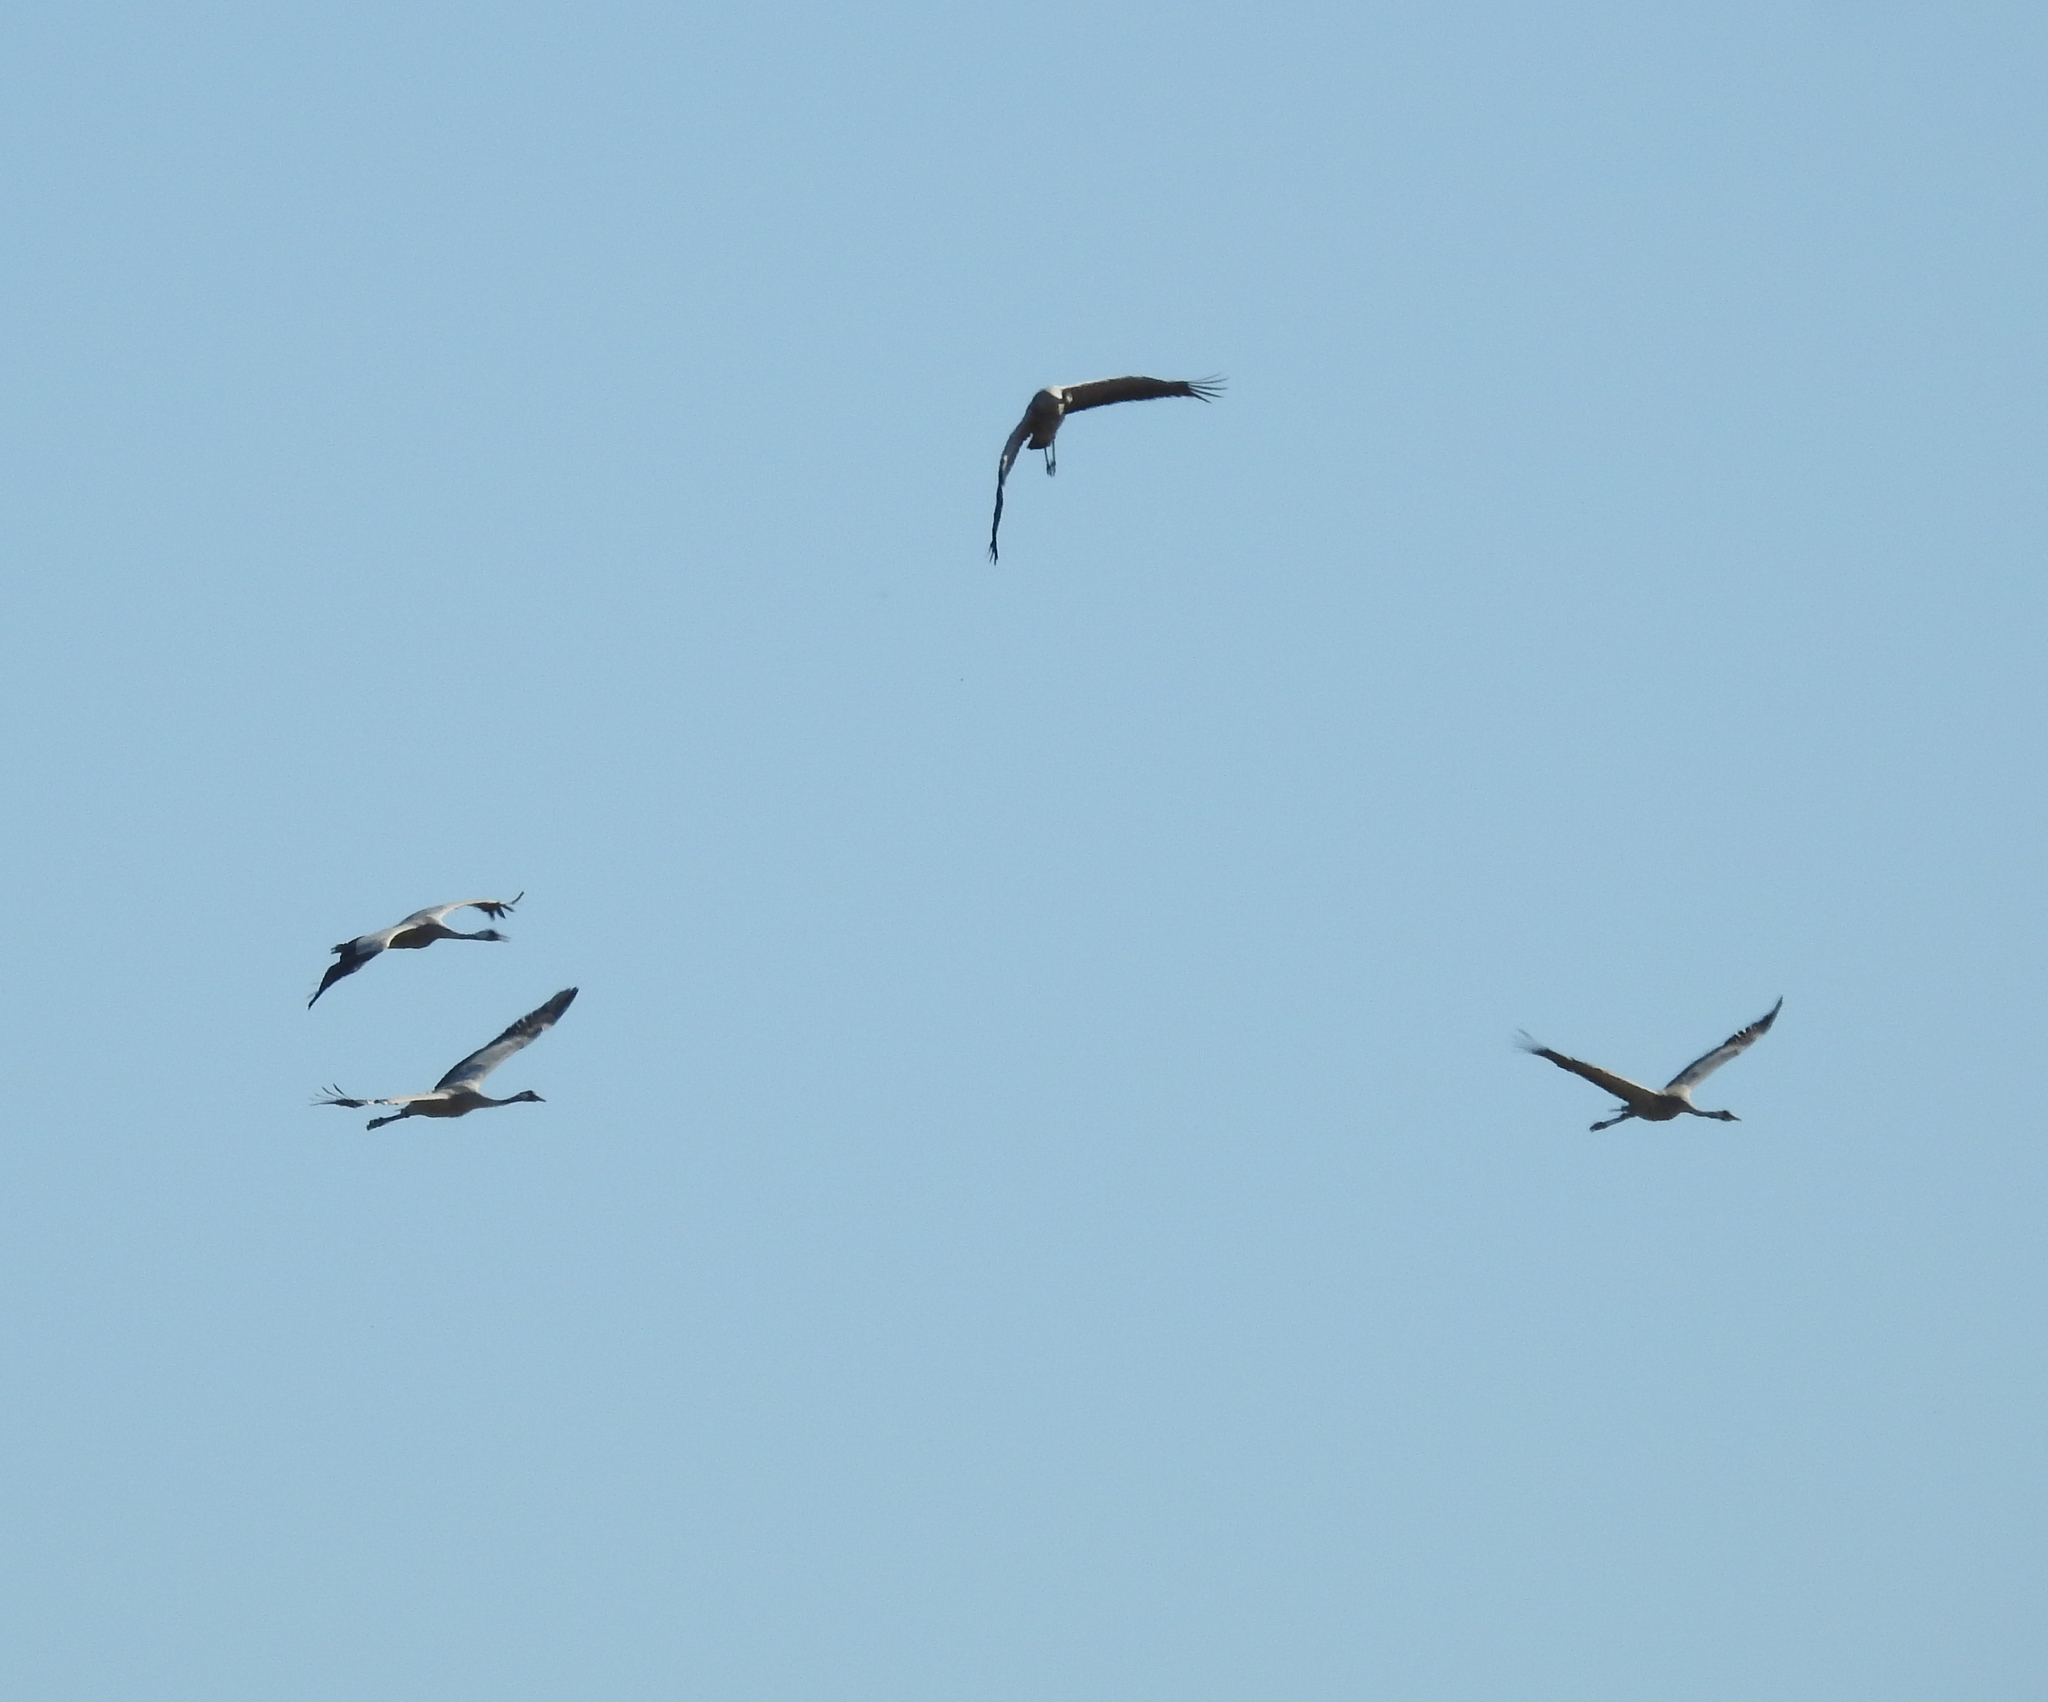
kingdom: Animalia
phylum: Chordata
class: Aves
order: Gruiformes
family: Gruidae
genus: Grus
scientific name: Grus grus
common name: Common crane
